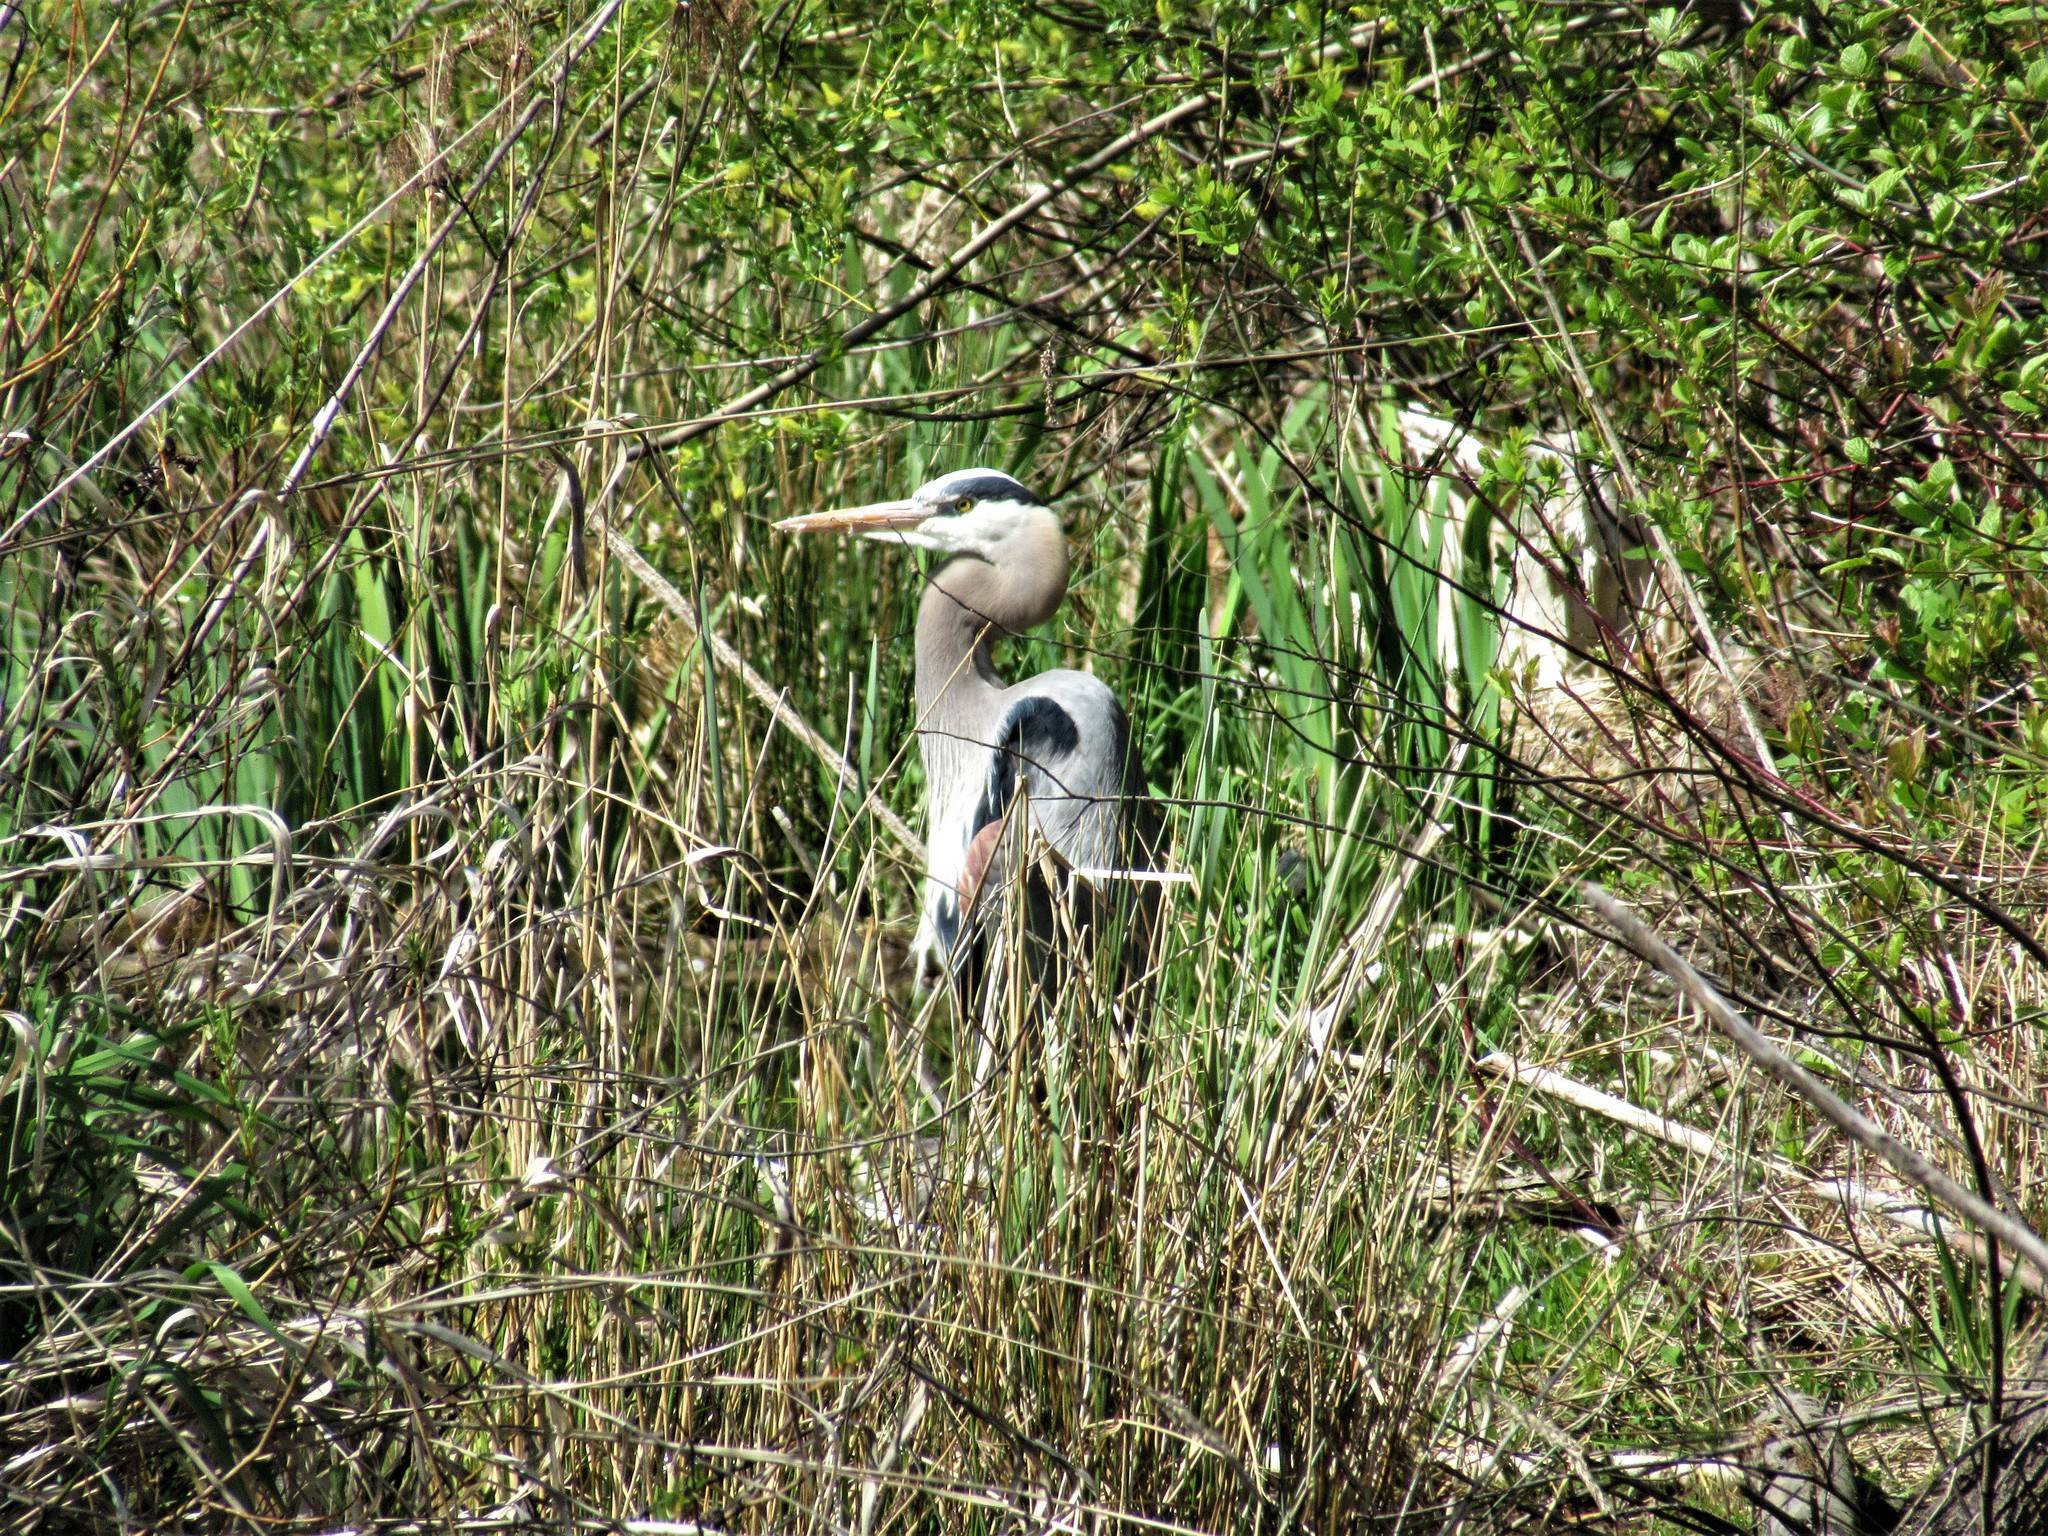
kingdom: Animalia
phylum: Chordata
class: Aves
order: Pelecaniformes
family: Ardeidae
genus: Ardea
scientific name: Ardea herodias
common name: Great blue heron
